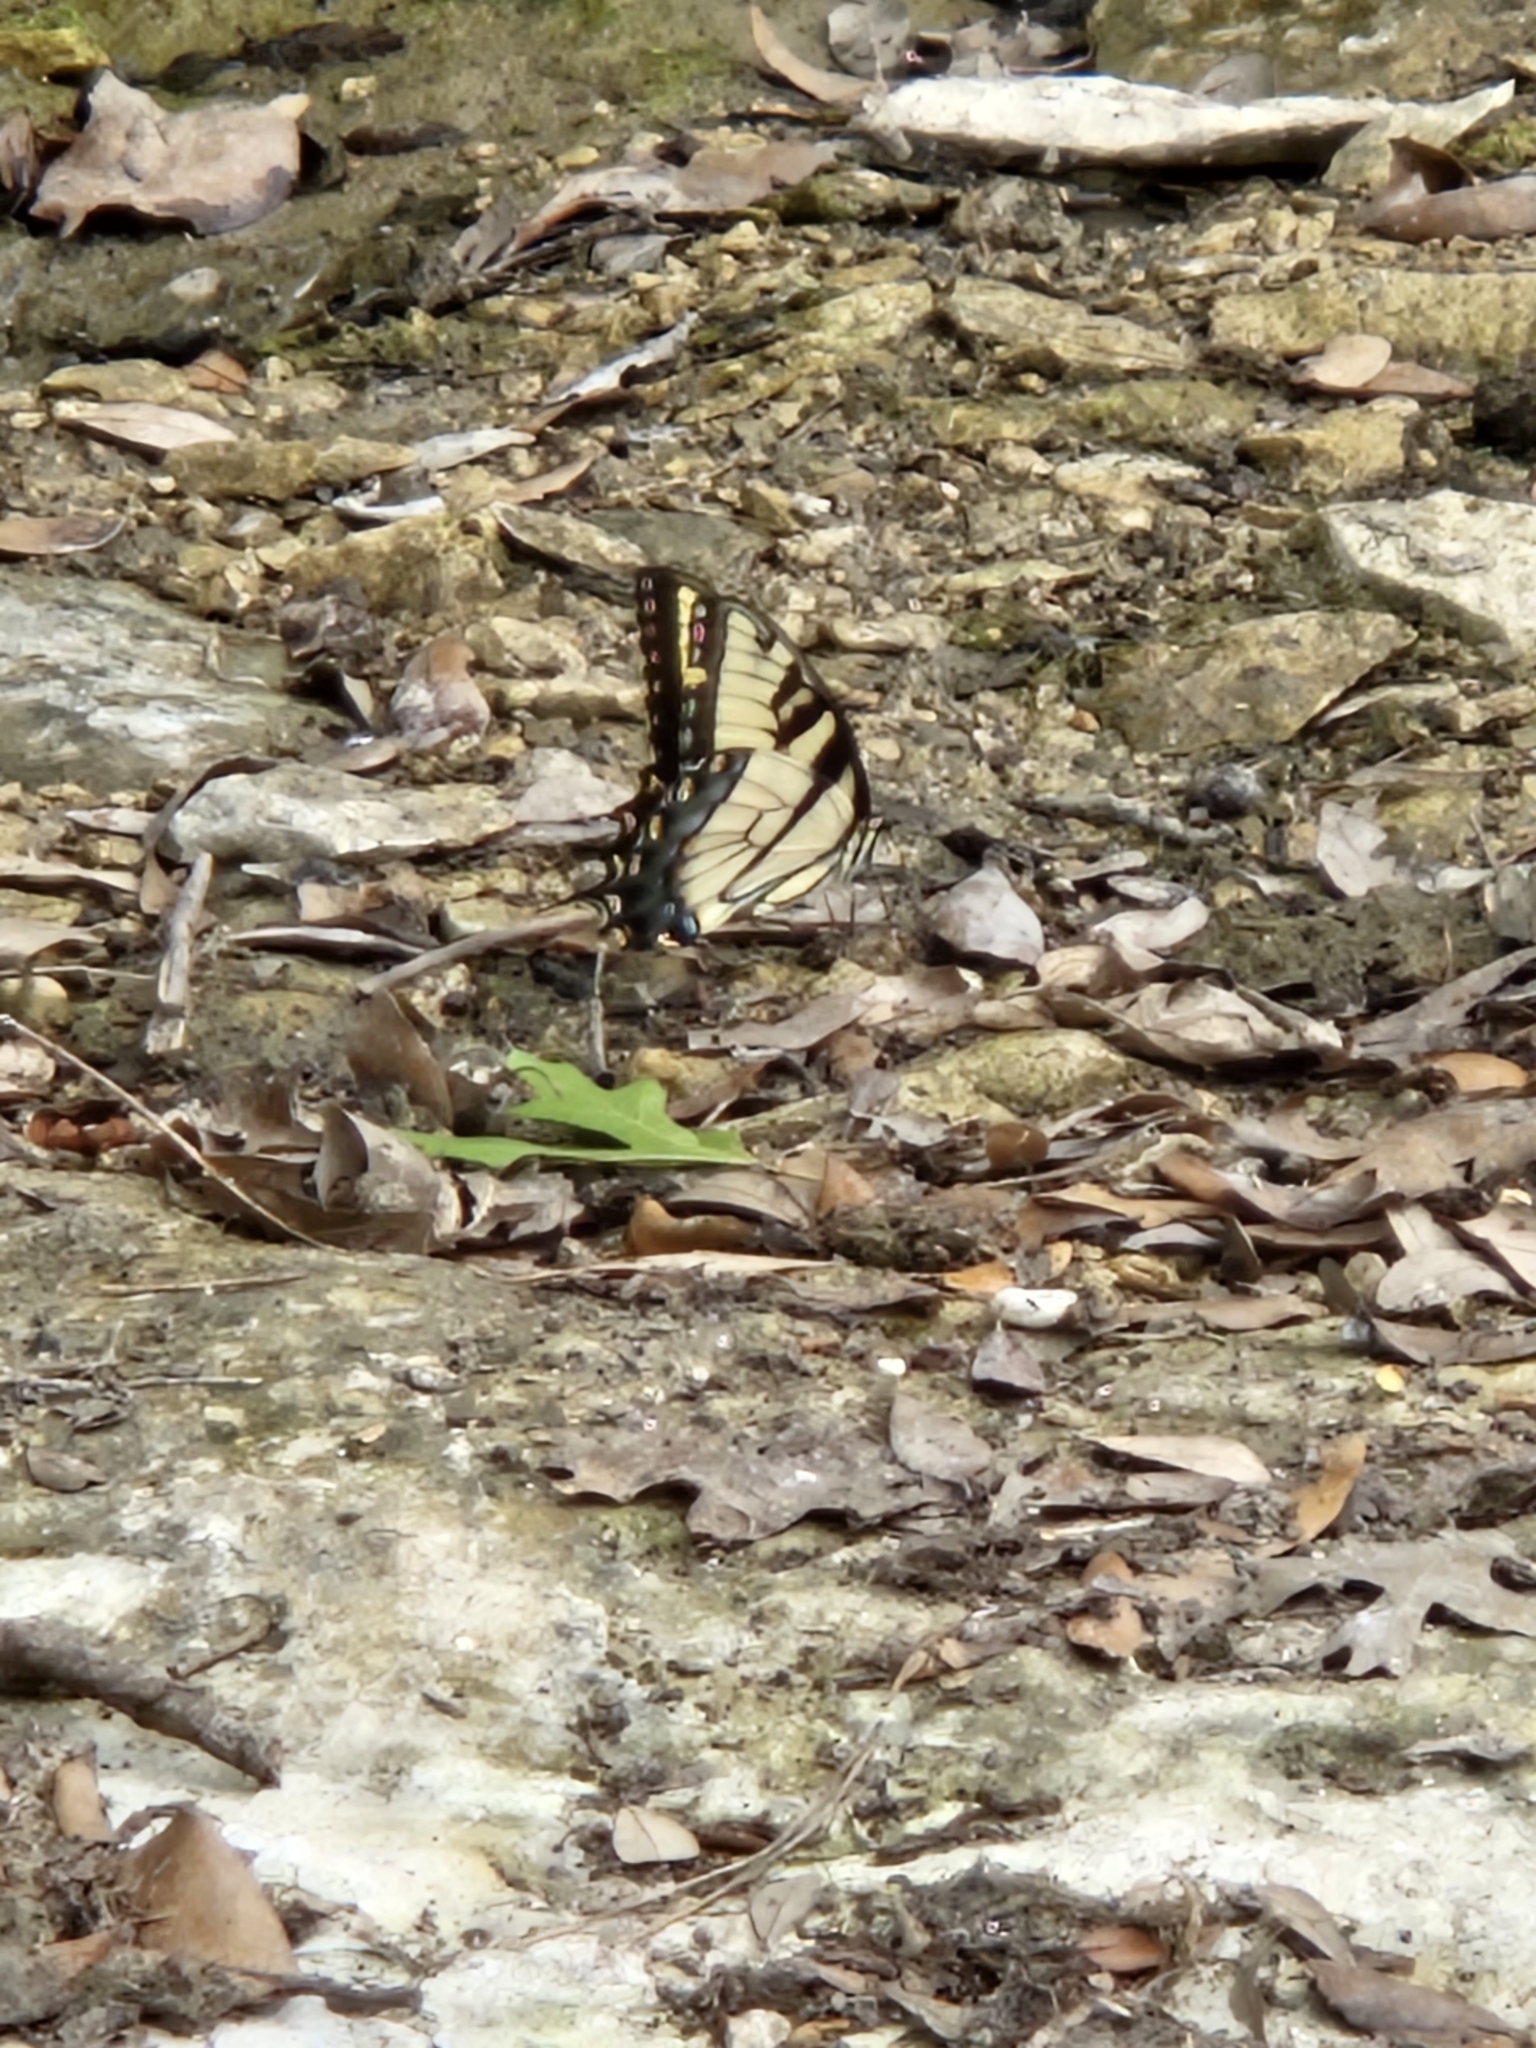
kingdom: Animalia
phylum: Arthropoda
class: Insecta
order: Lepidoptera
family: Papilionidae
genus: Papilio
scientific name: Papilio glaucus
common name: Tiger swallowtail
